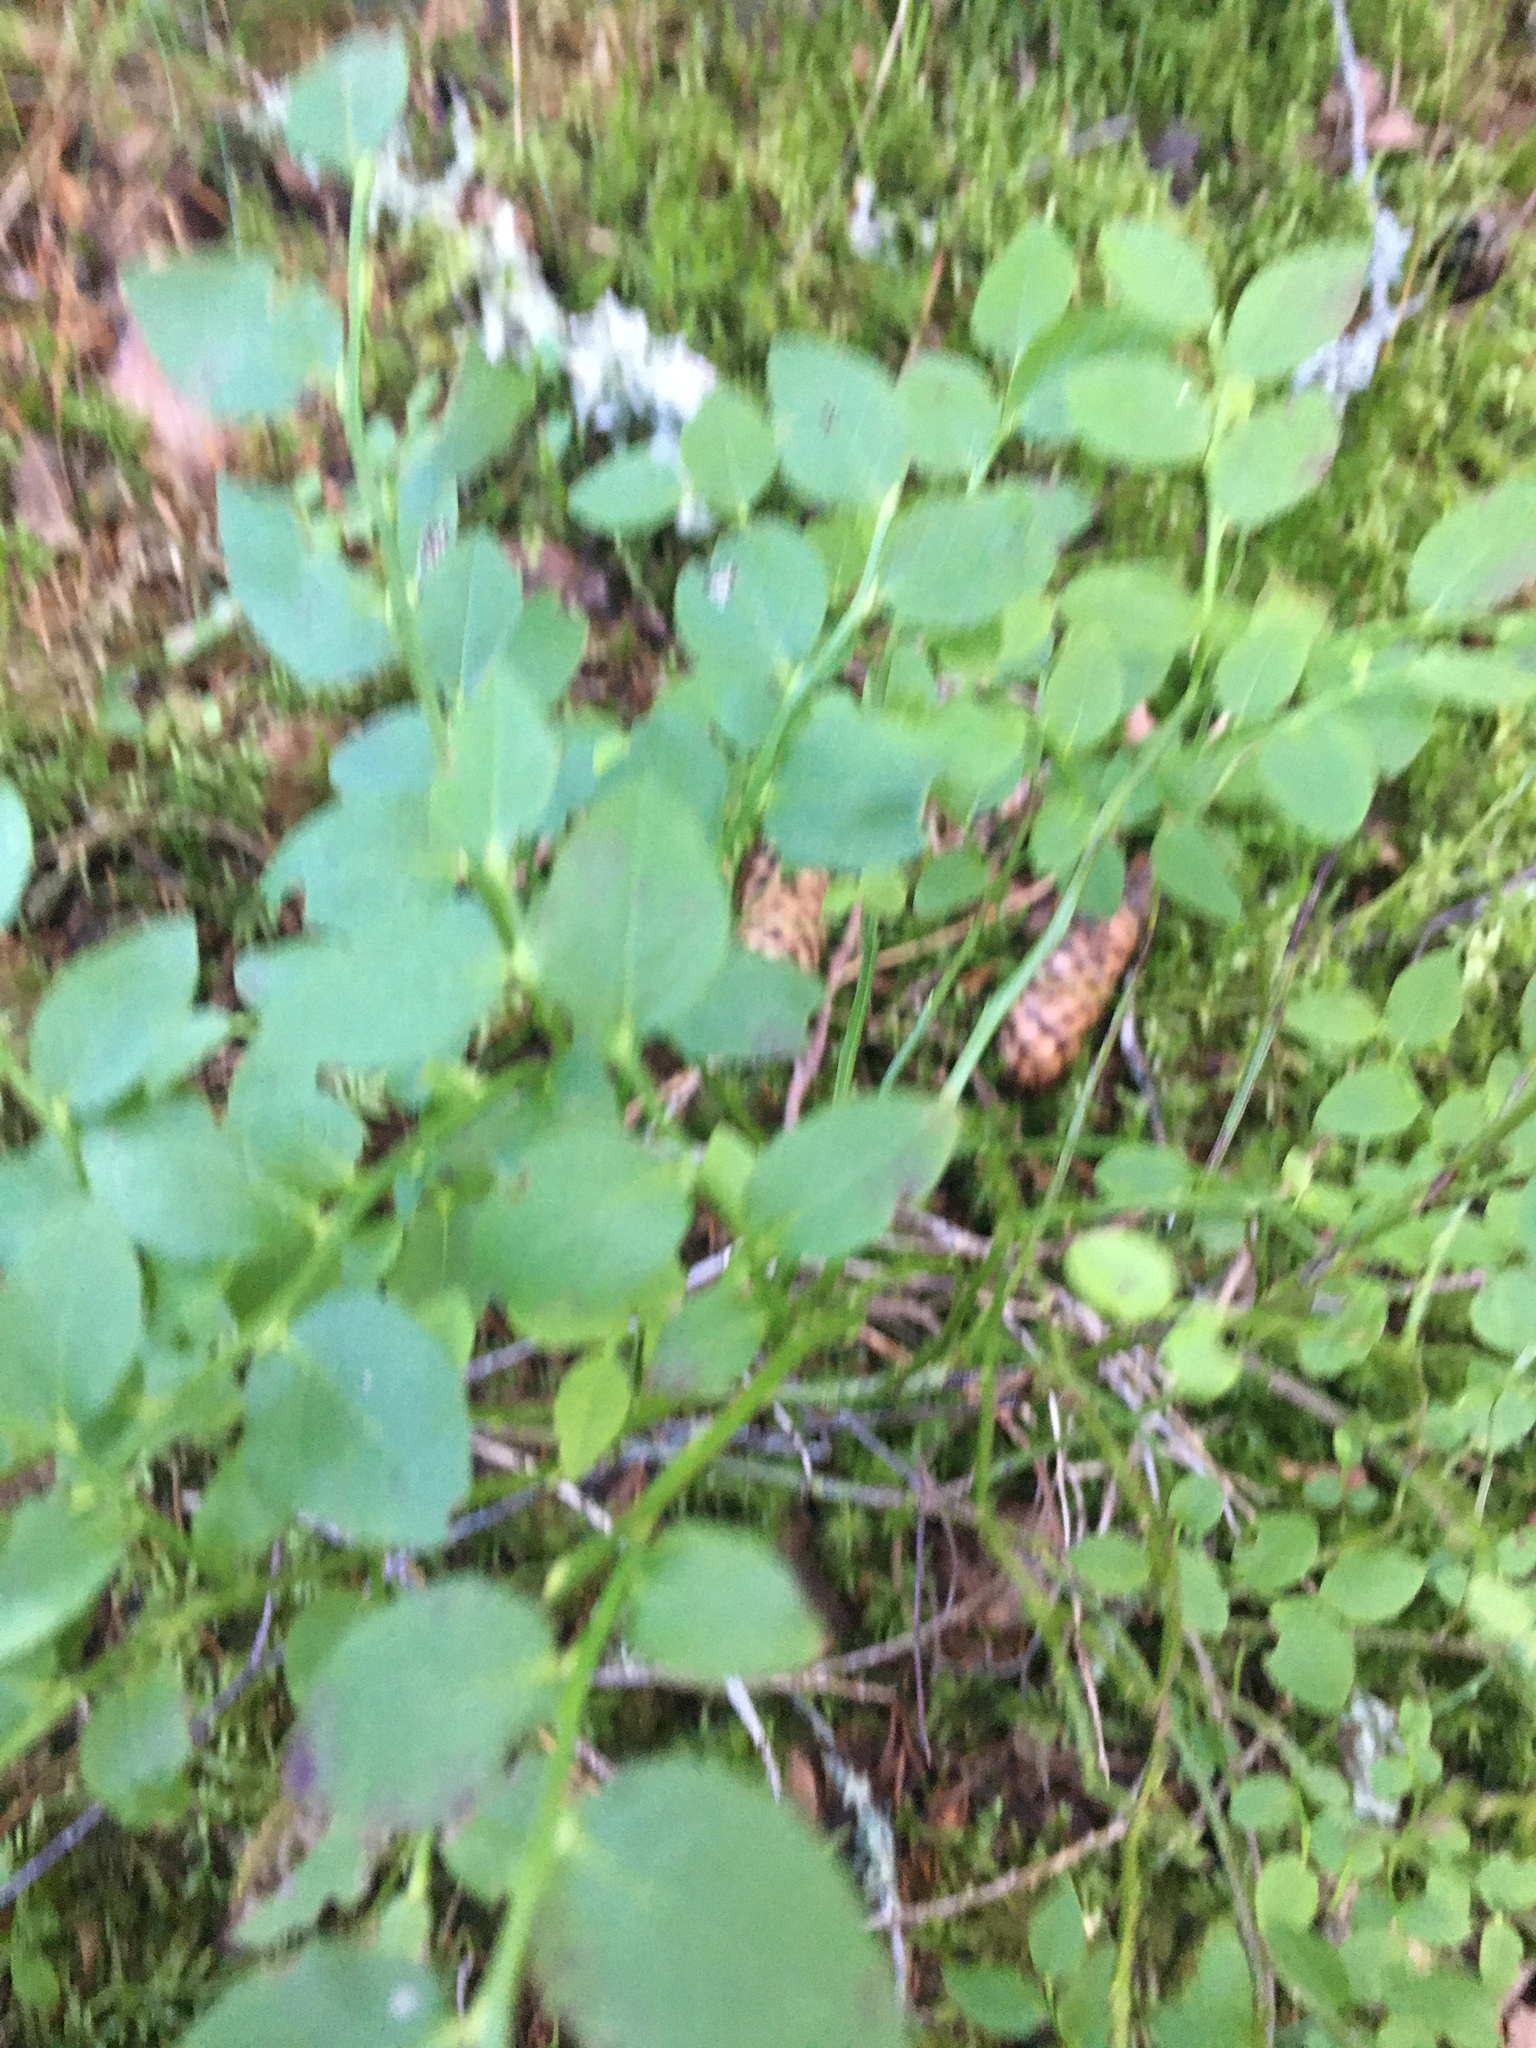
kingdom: Plantae
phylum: Tracheophyta
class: Magnoliopsida
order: Ericales
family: Ericaceae
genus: Vaccinium
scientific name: Vaccinium myrtillus
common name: Bilberry
